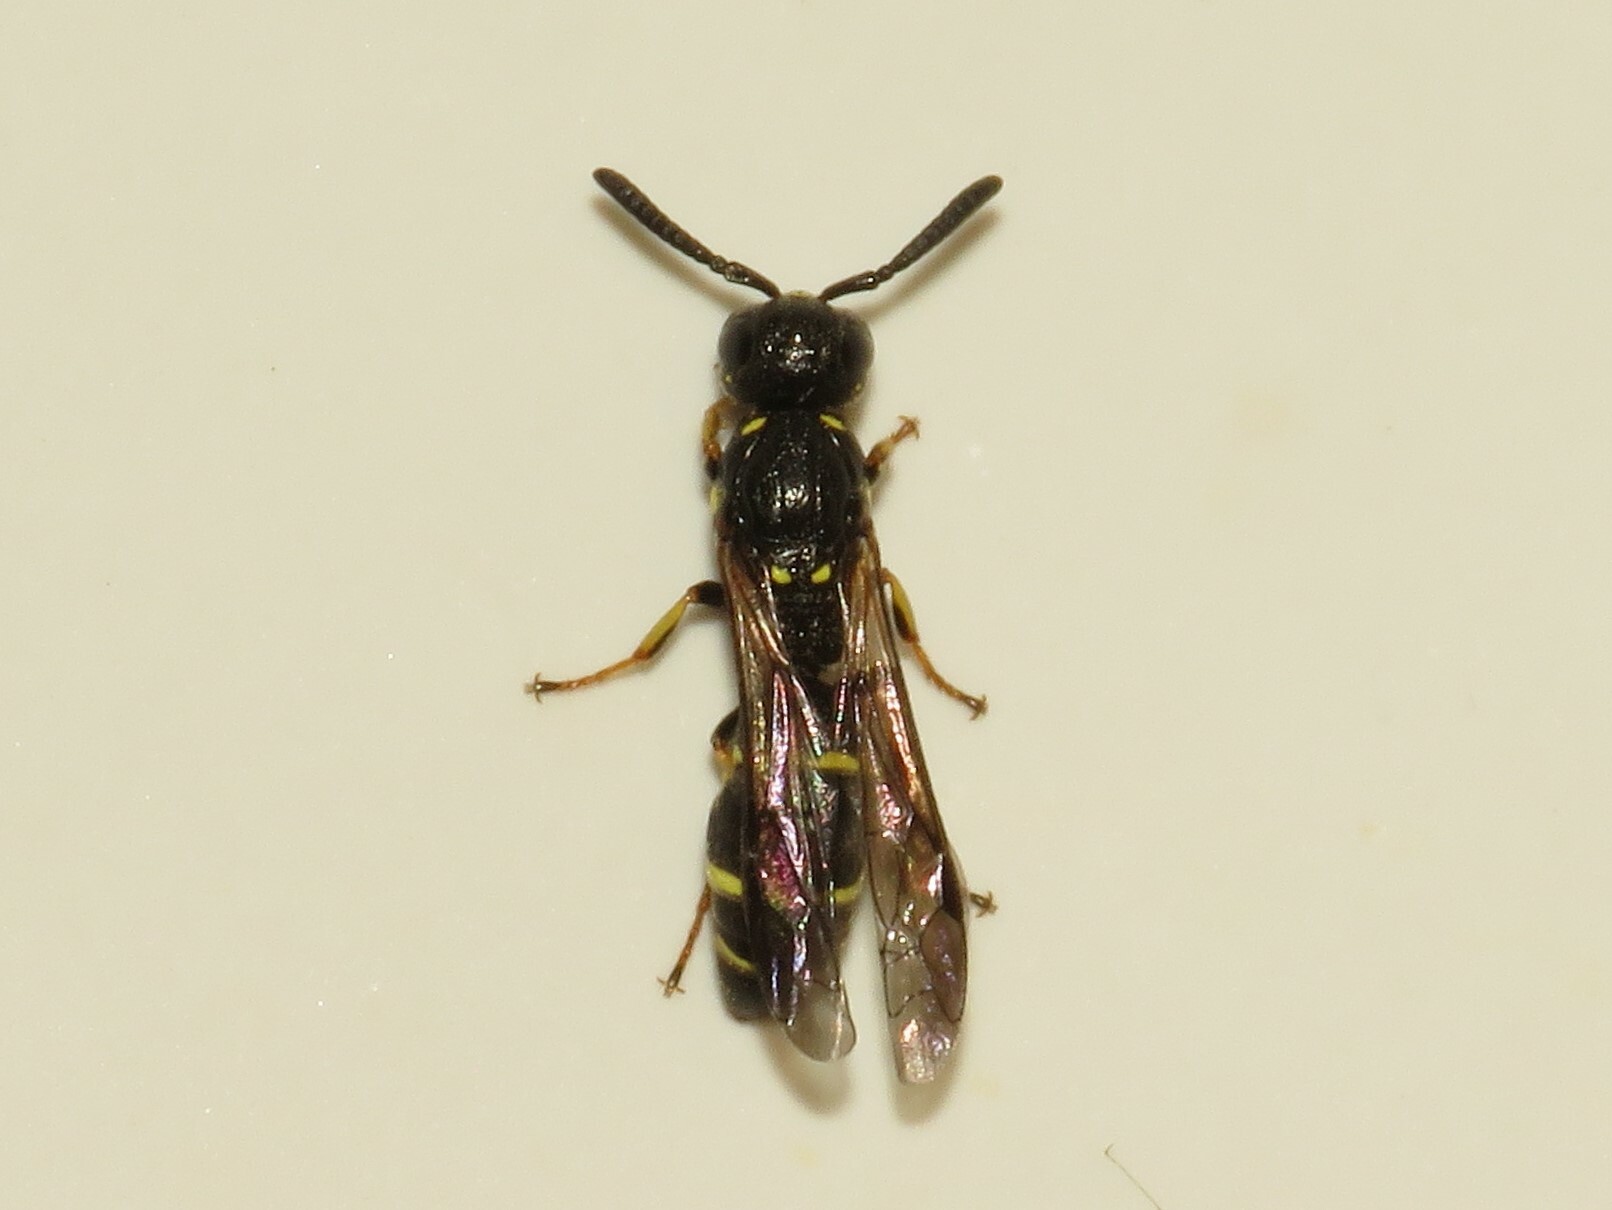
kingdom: Animalia
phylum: Arthropoda
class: Insecta
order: Hymenoptera
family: Eumenidae
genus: Symmorphus
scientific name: Symmorphus
